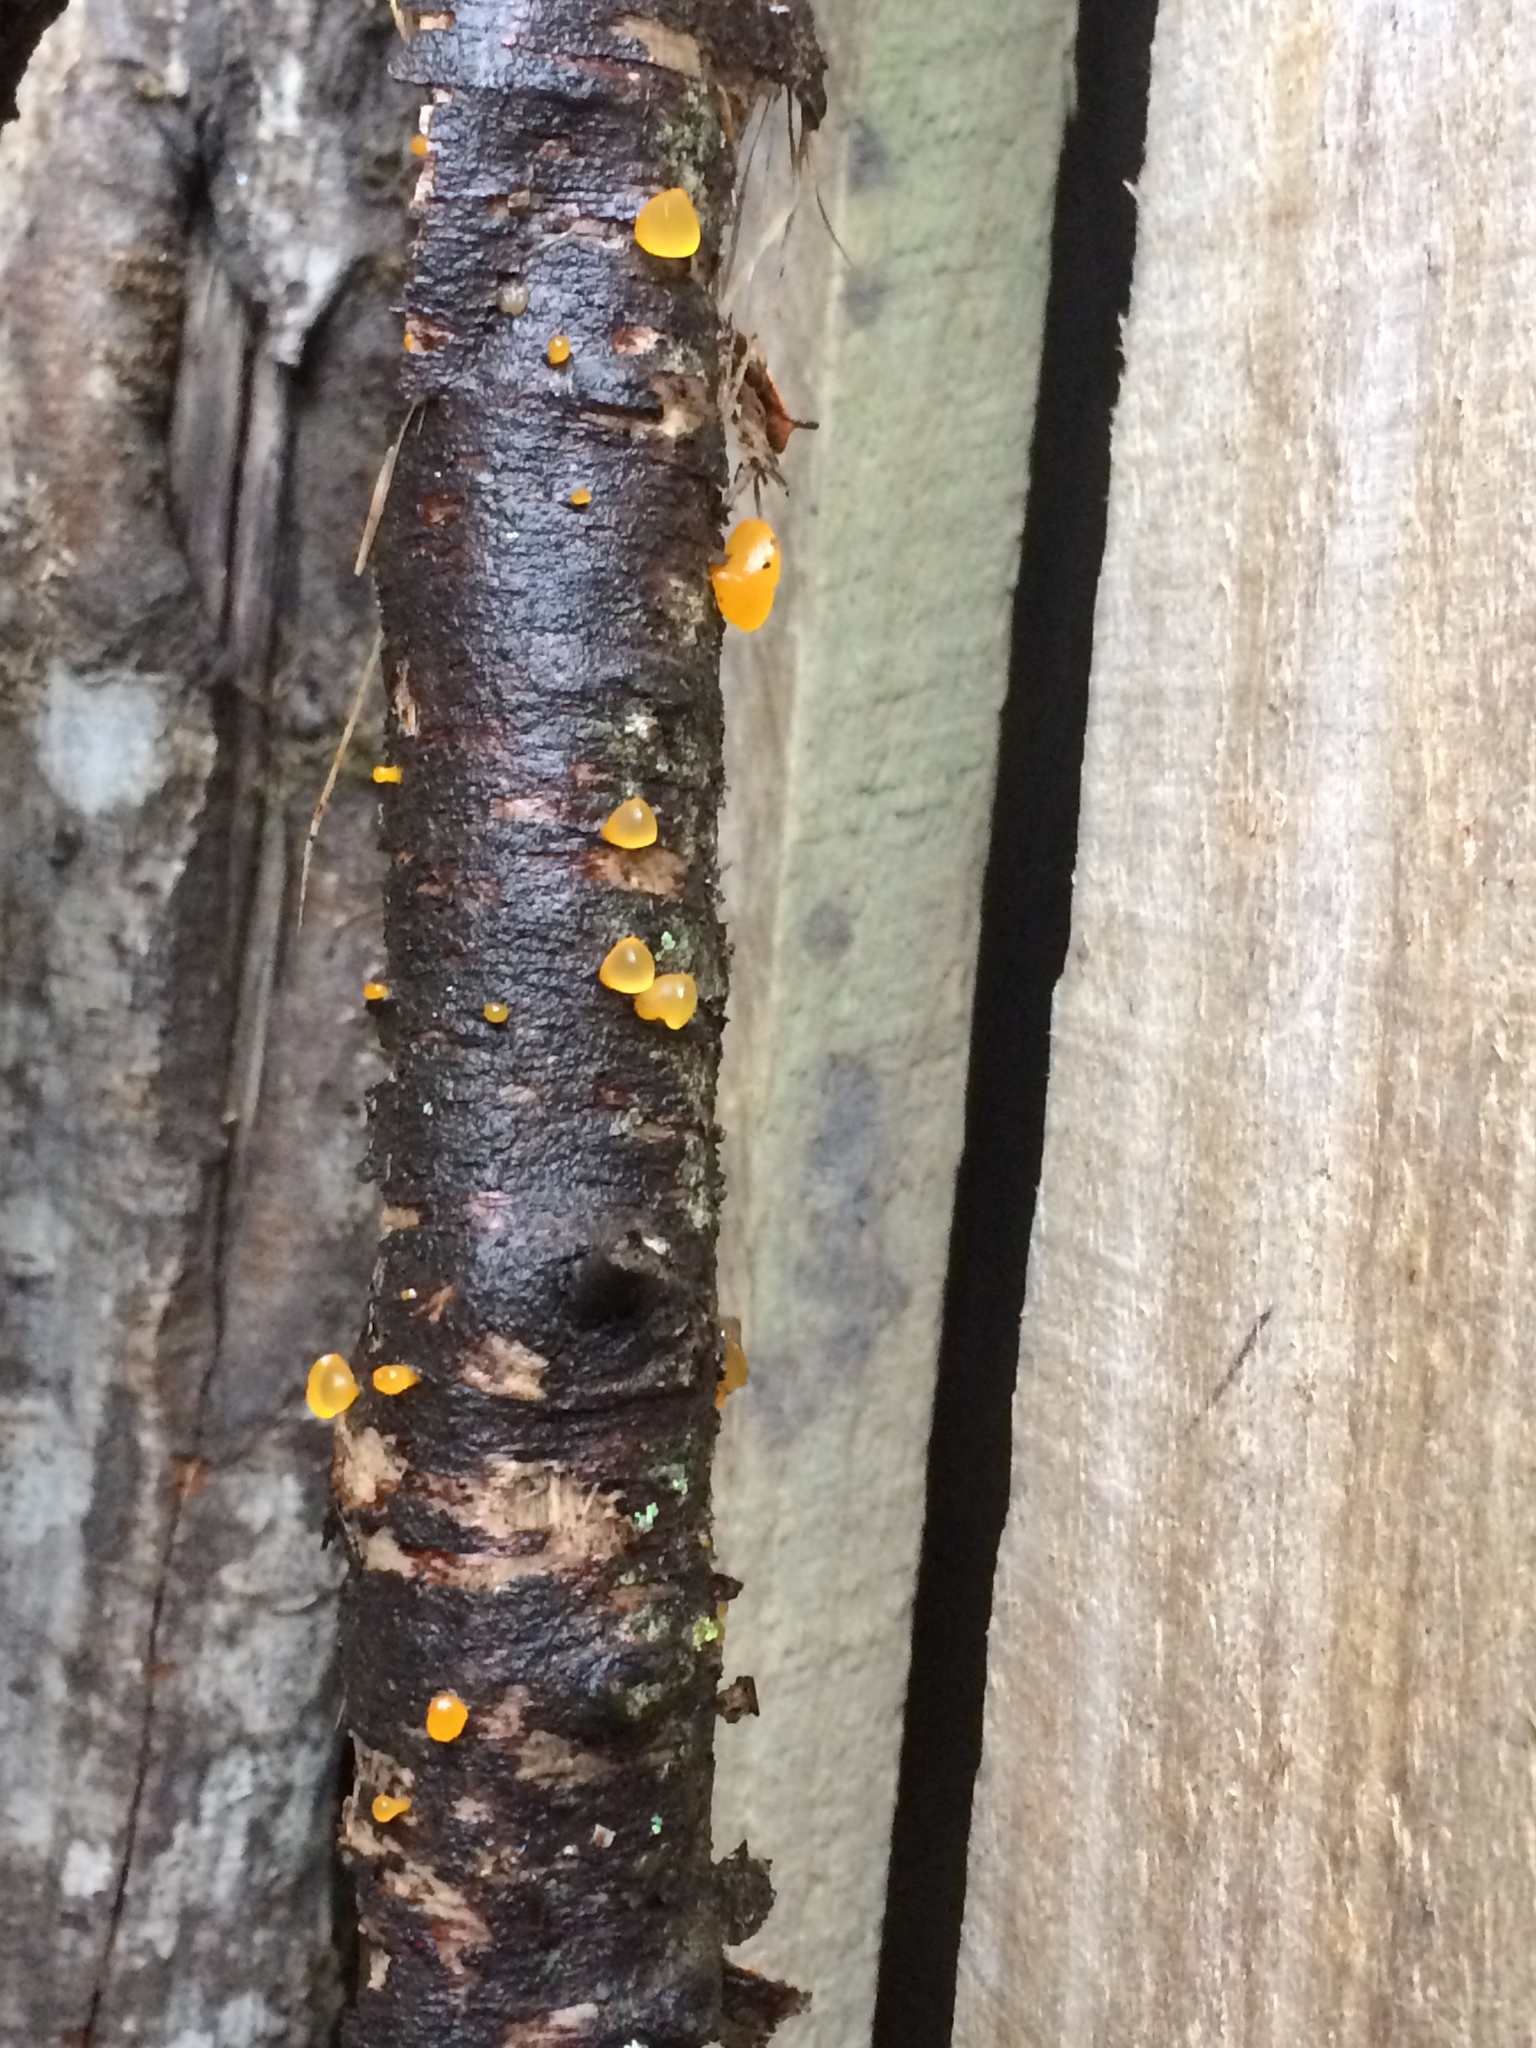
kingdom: Fungi
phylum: Basidiomycota
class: Dacrymycetes
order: Dacrymycetales
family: Dacrymycetaceae
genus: Heterotextus
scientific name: Heterotextus miltinus
